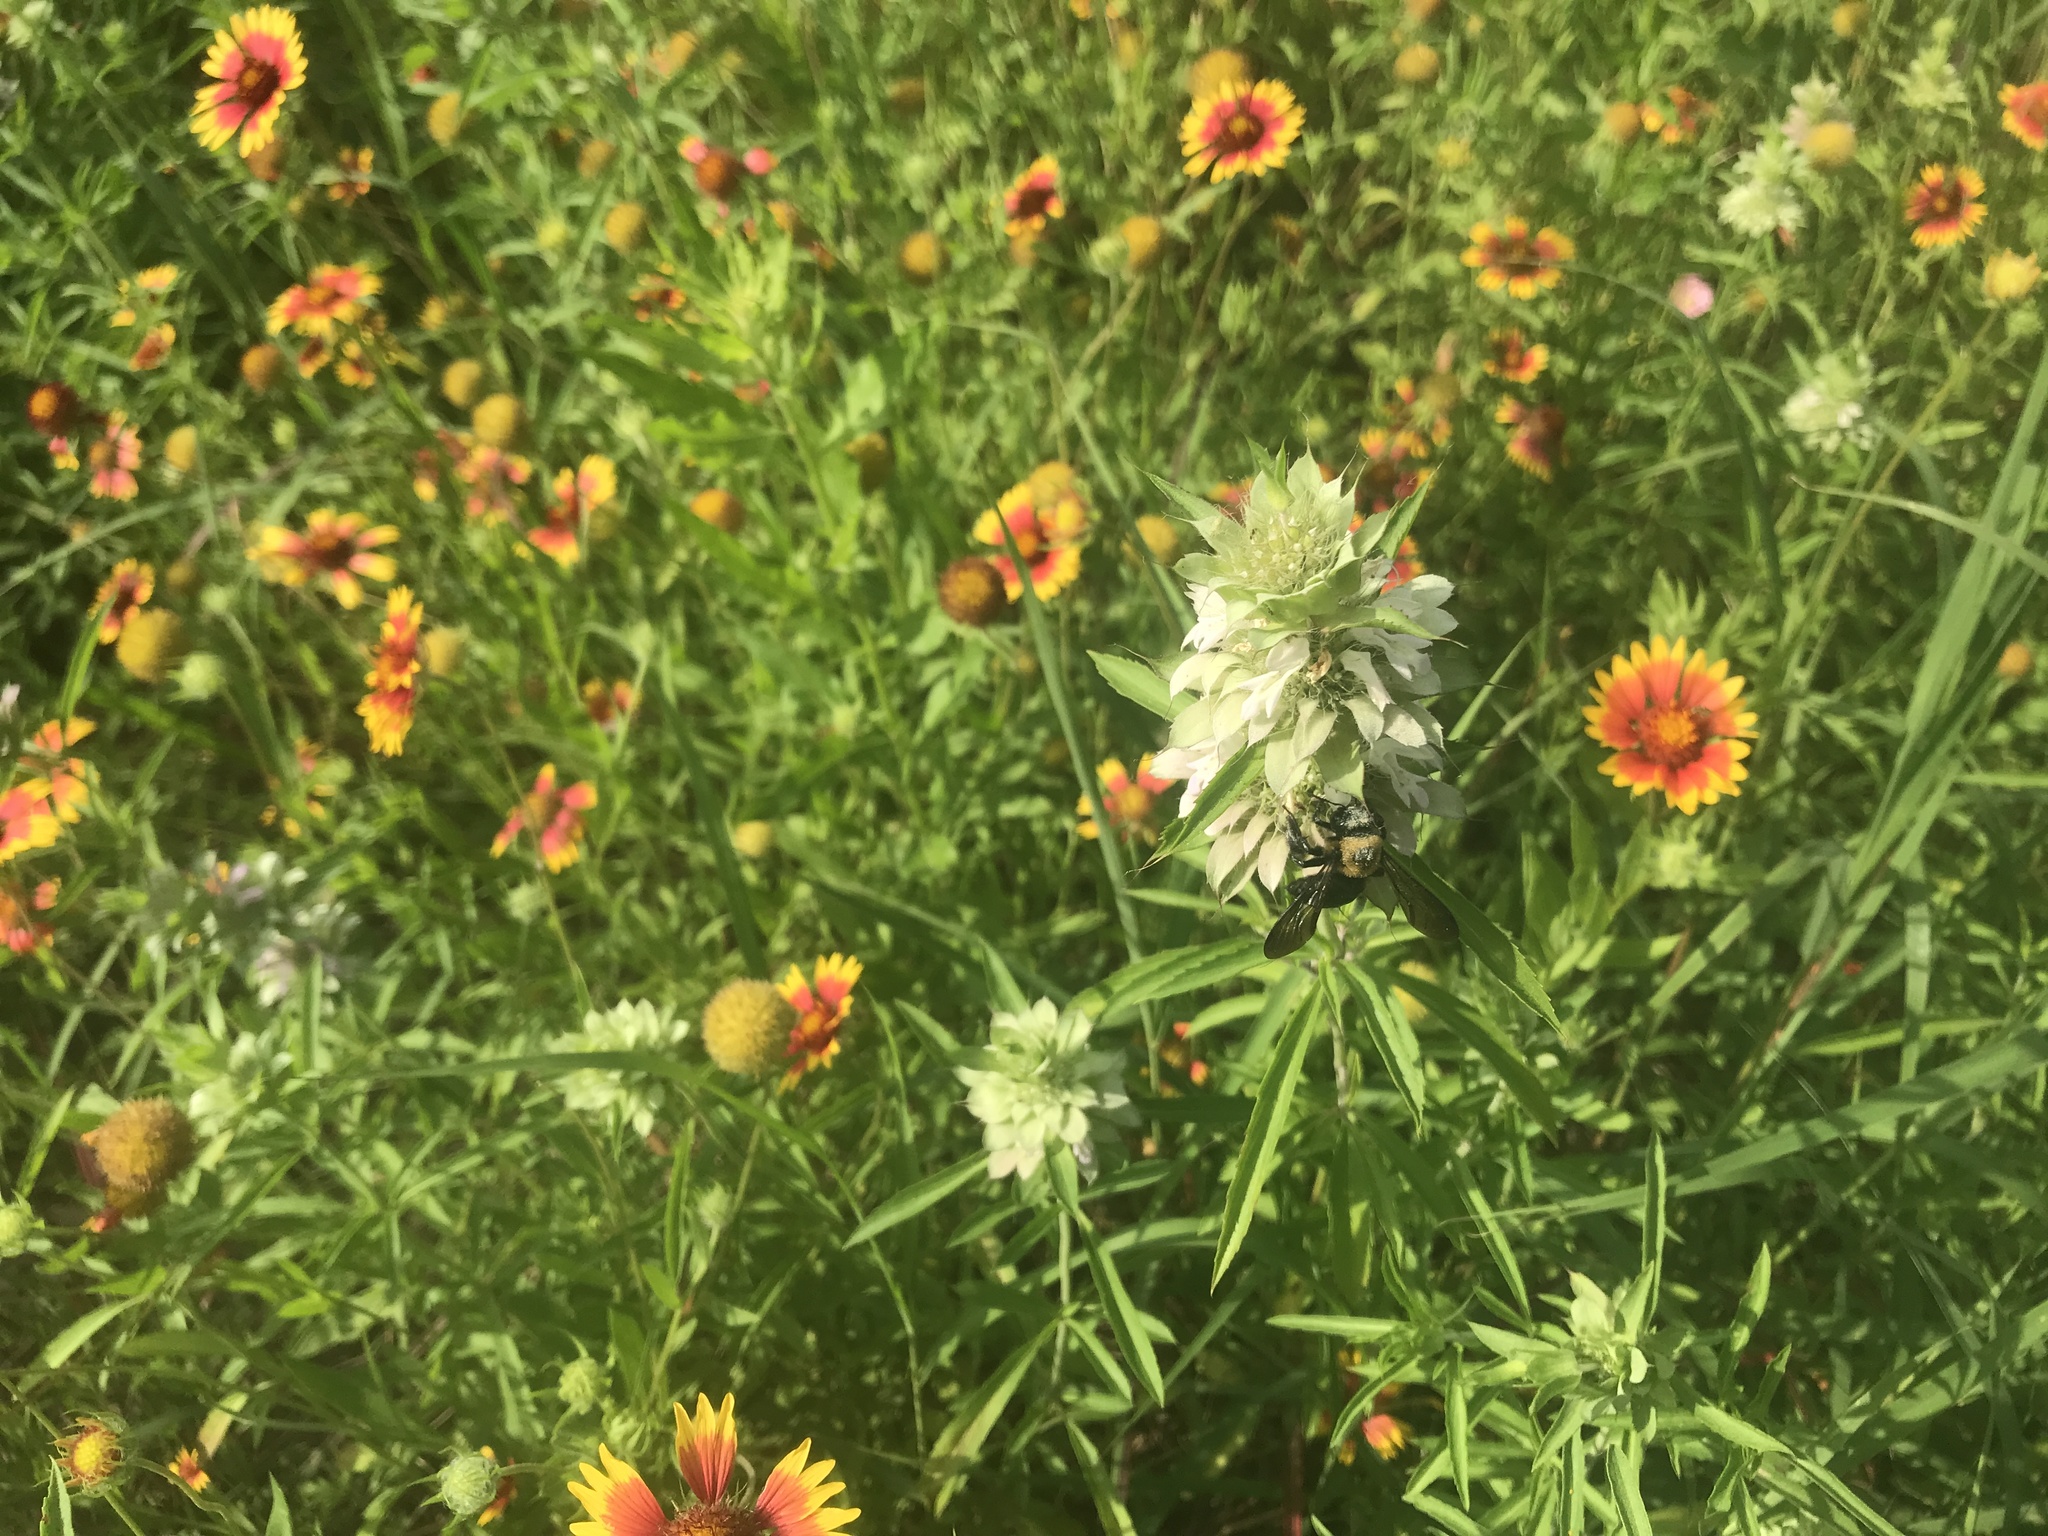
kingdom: Animalia
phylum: Arthropoda
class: Insecta
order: Hymenoptera
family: Apidae
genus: Xylocopa
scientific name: Xylocopa virginica
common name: Carpenter bee
